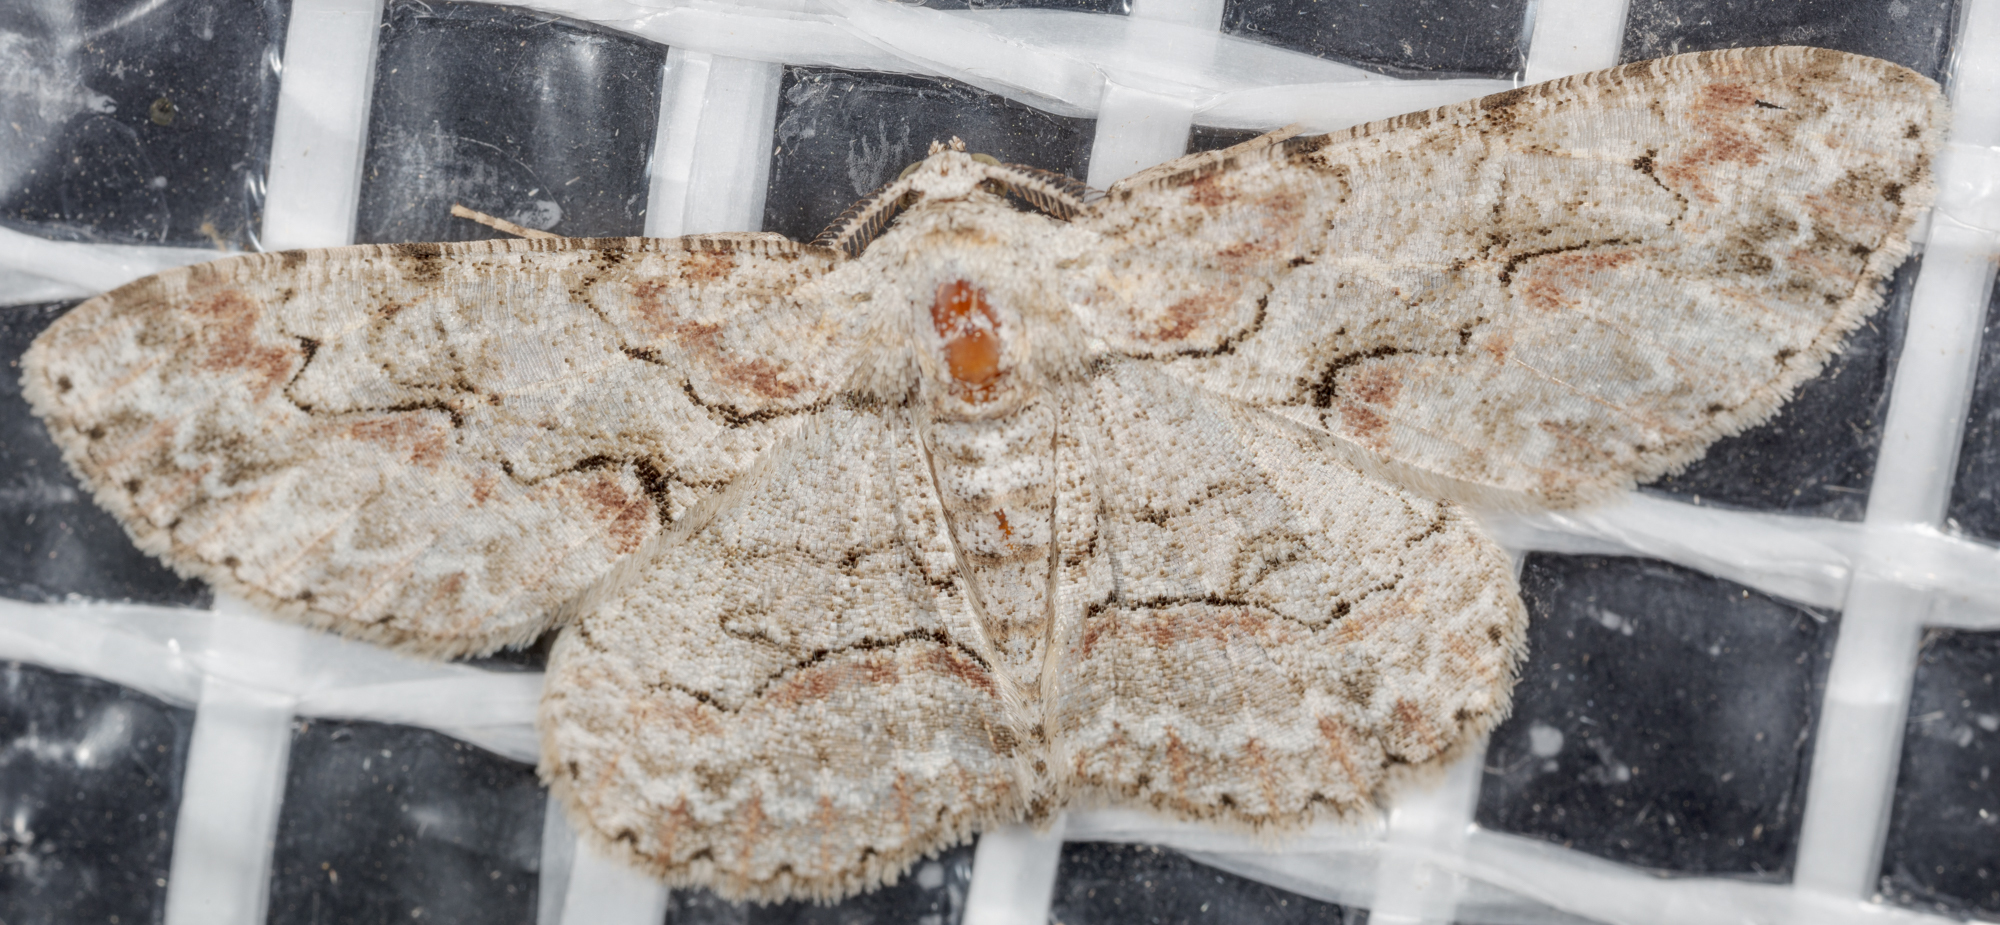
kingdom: Animalia
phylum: Arthropoda
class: Insecta
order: Lepidoptera
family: Geometridae
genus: Iridopsis
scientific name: Iridopsis defectaria
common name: Brown-shaded gray
